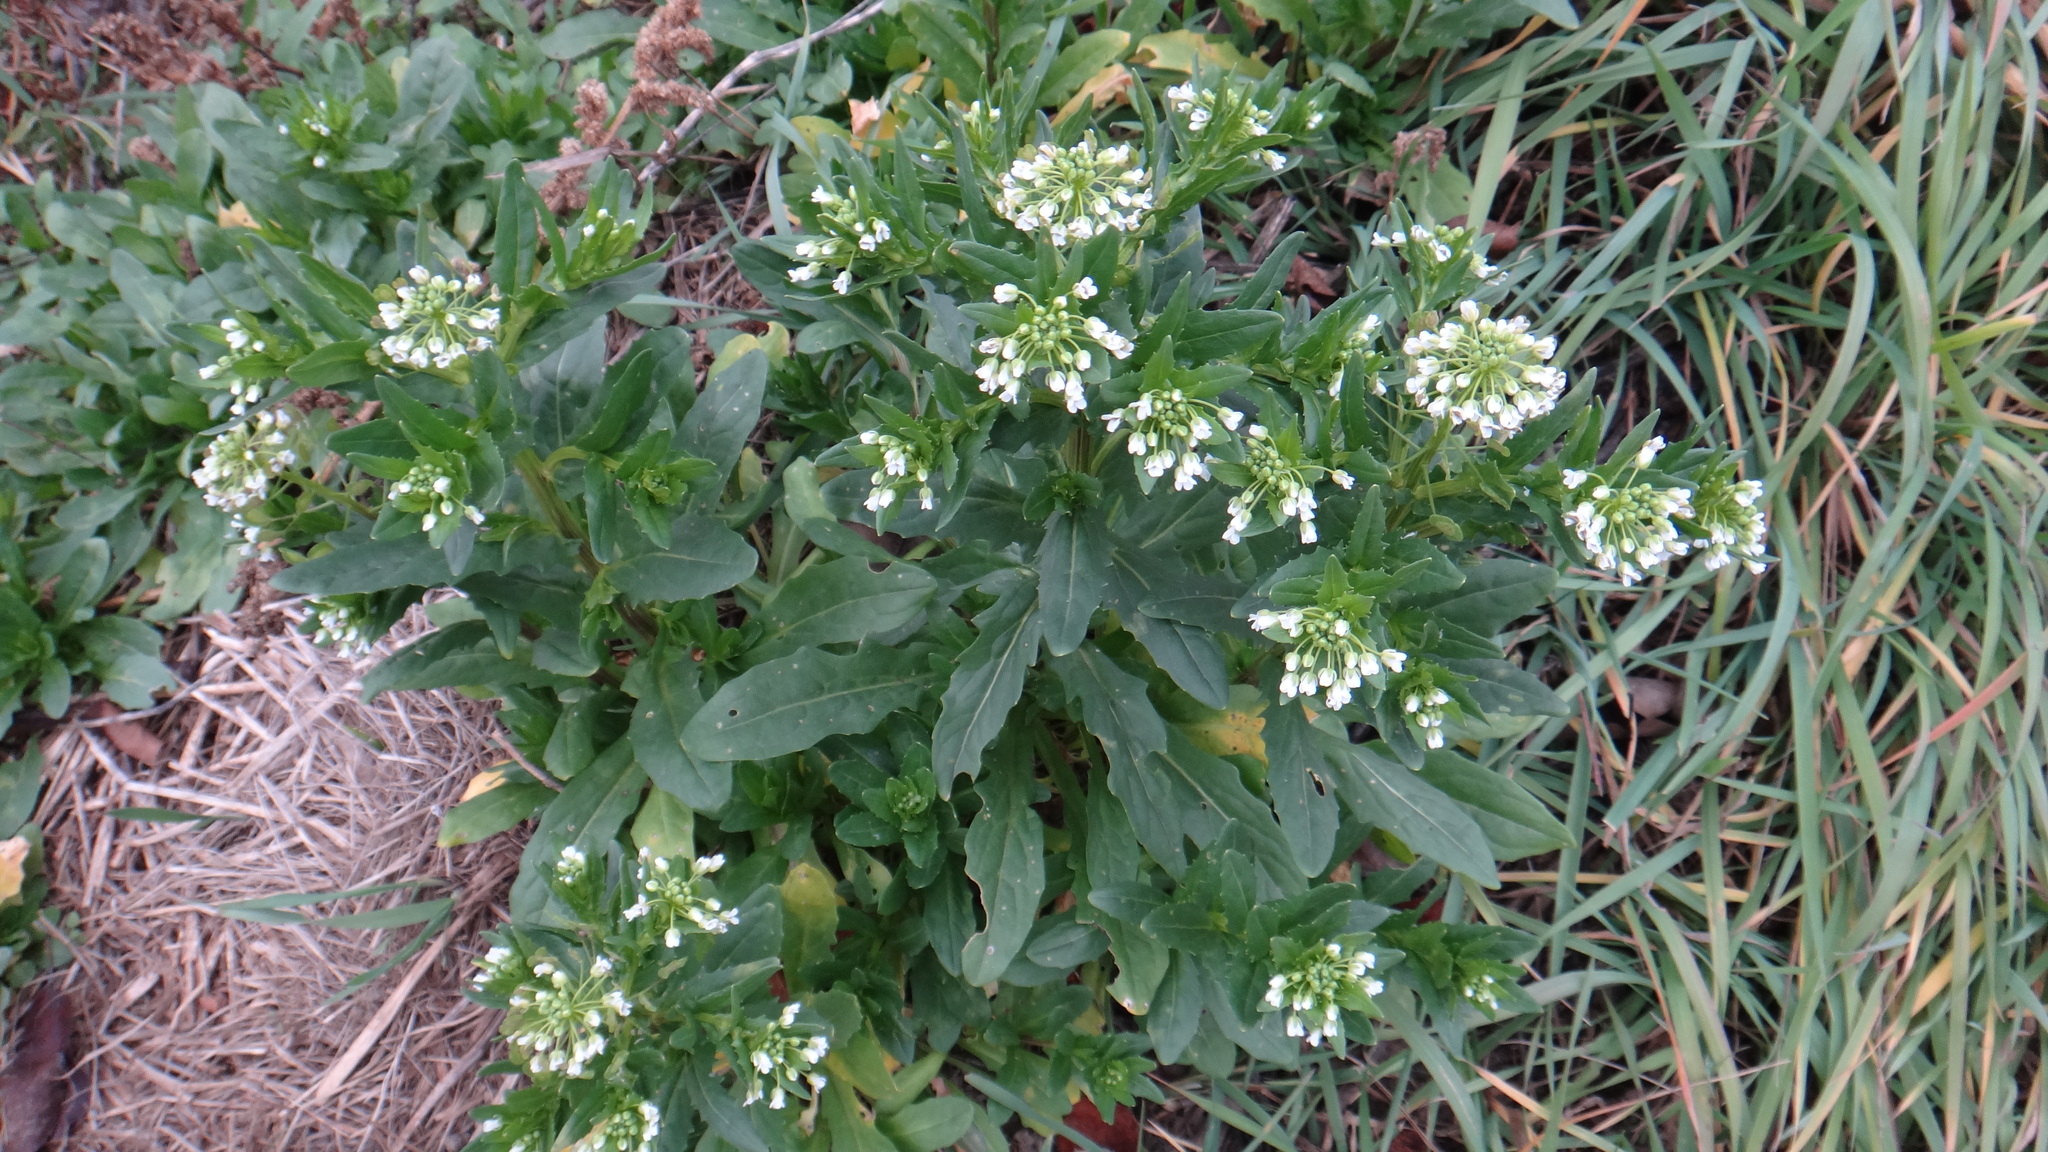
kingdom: Plantae
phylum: Tracheophyta
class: Magnoliopsida
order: Brassicales
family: Brassicaceae
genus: Thlaspi
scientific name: Thlaspi arvense
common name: Field pennycress
